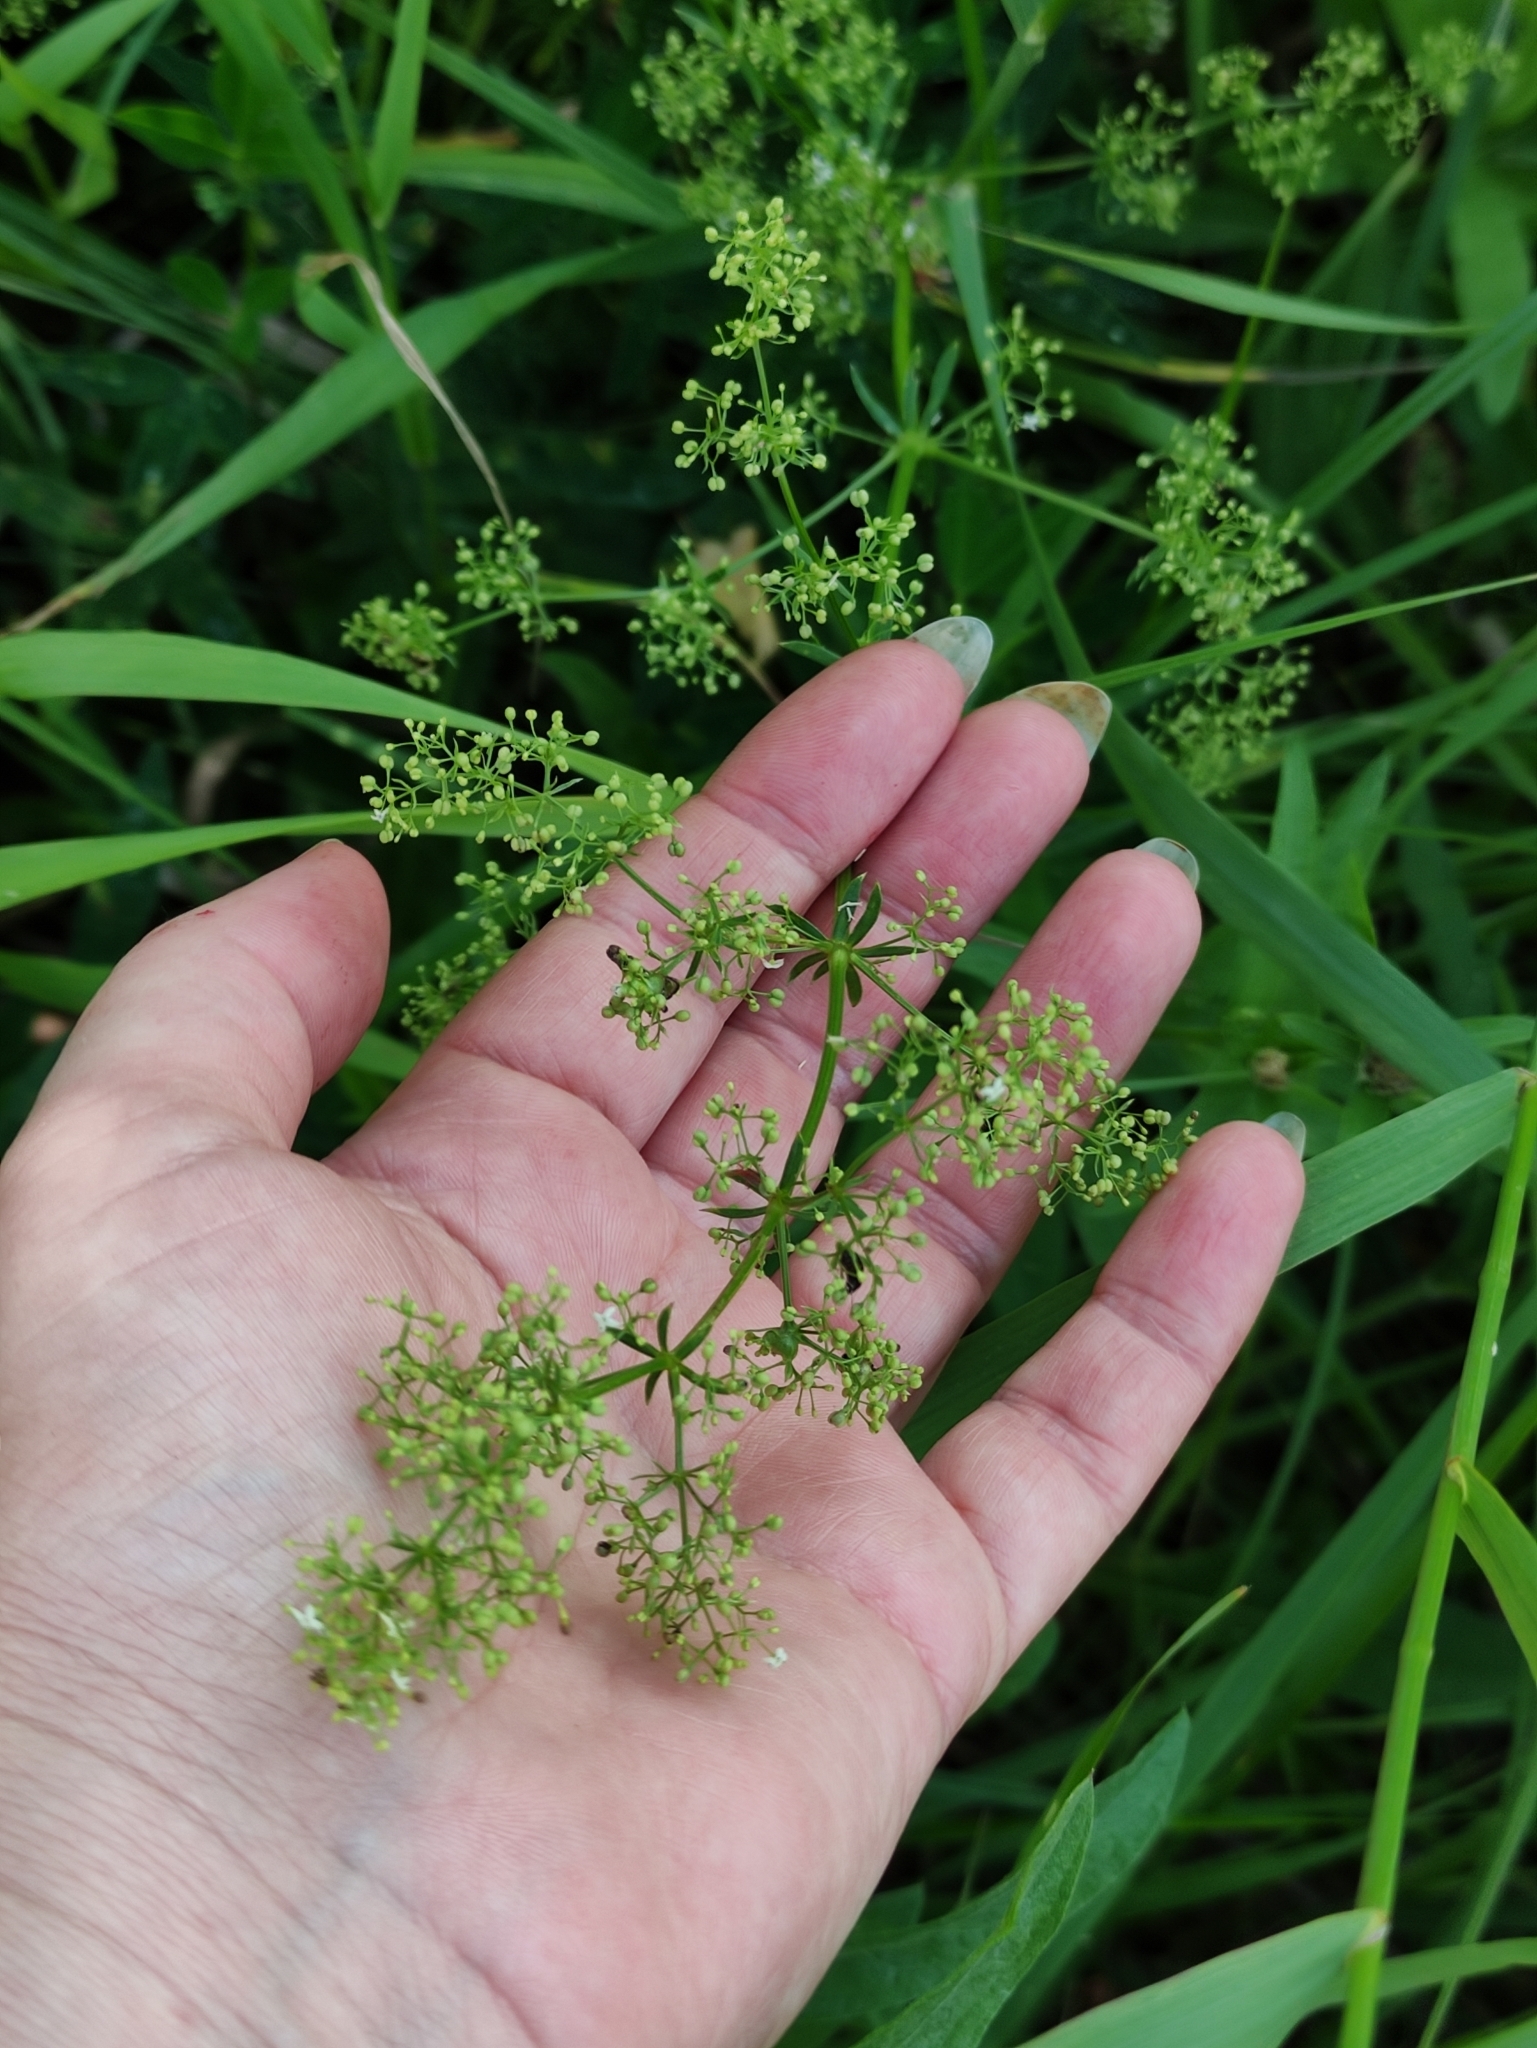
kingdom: Plantae
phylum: Tracheophyta
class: Magnoliopsida
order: Gentianales
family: Rubiaceae
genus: Galium
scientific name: Galium mollugo
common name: Hedge bedstraw
